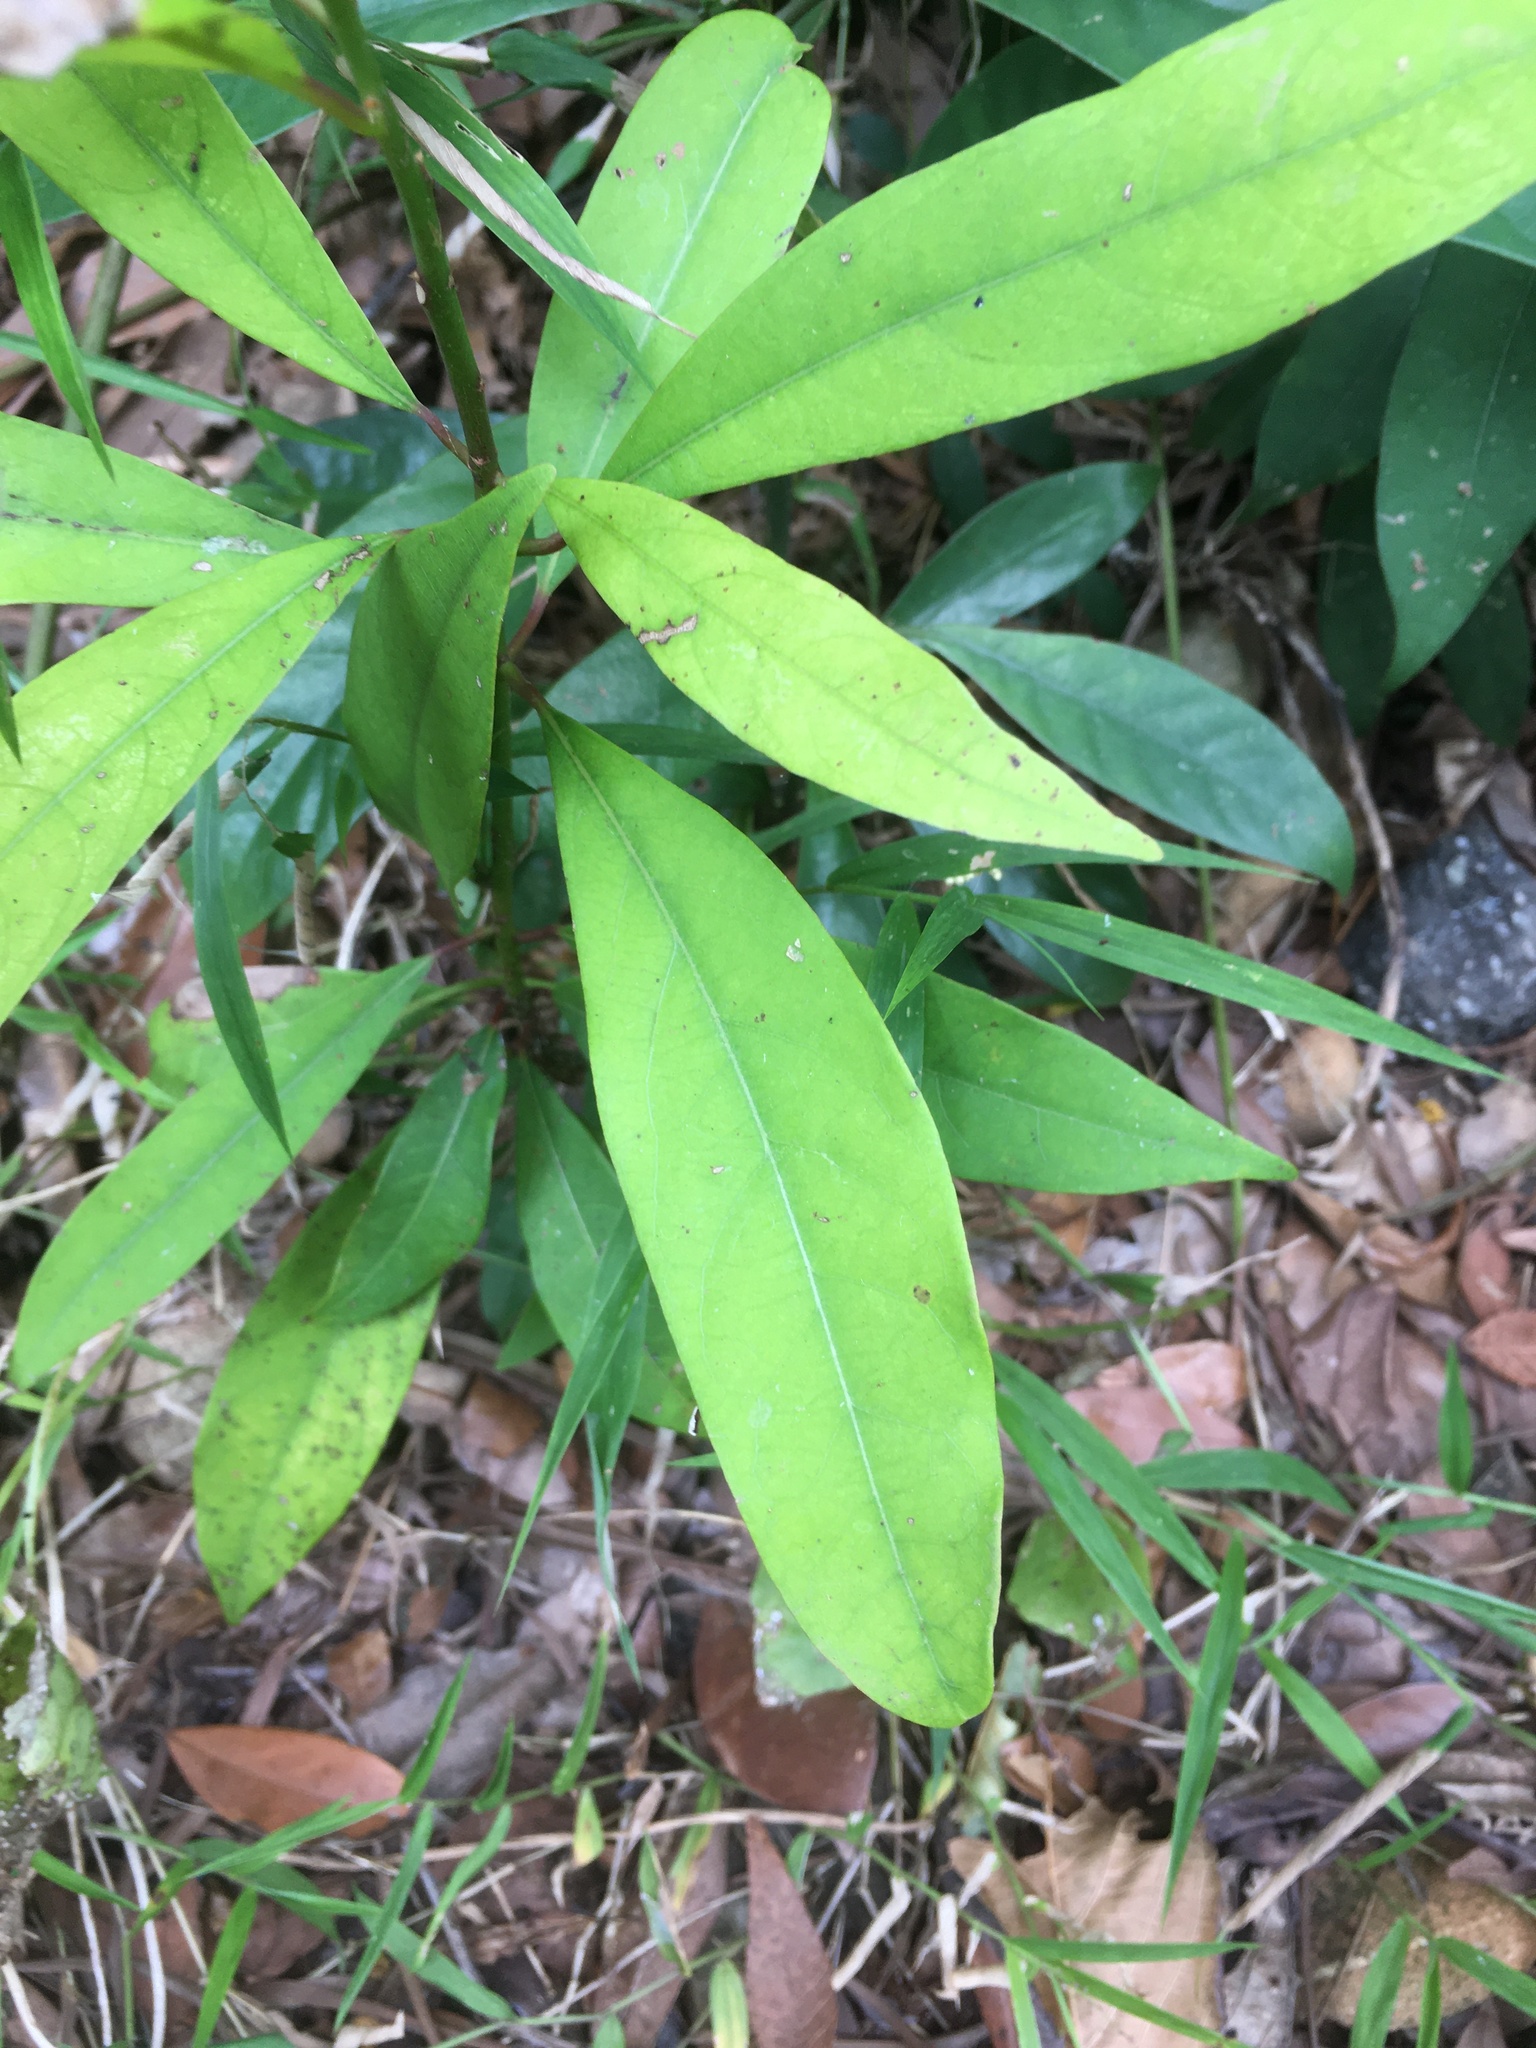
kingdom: Plantae
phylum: Tracheophyta
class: Magnoliopsida
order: Laurales
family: Lauraceae
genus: Machilus
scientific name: Machilus zuihoensis
